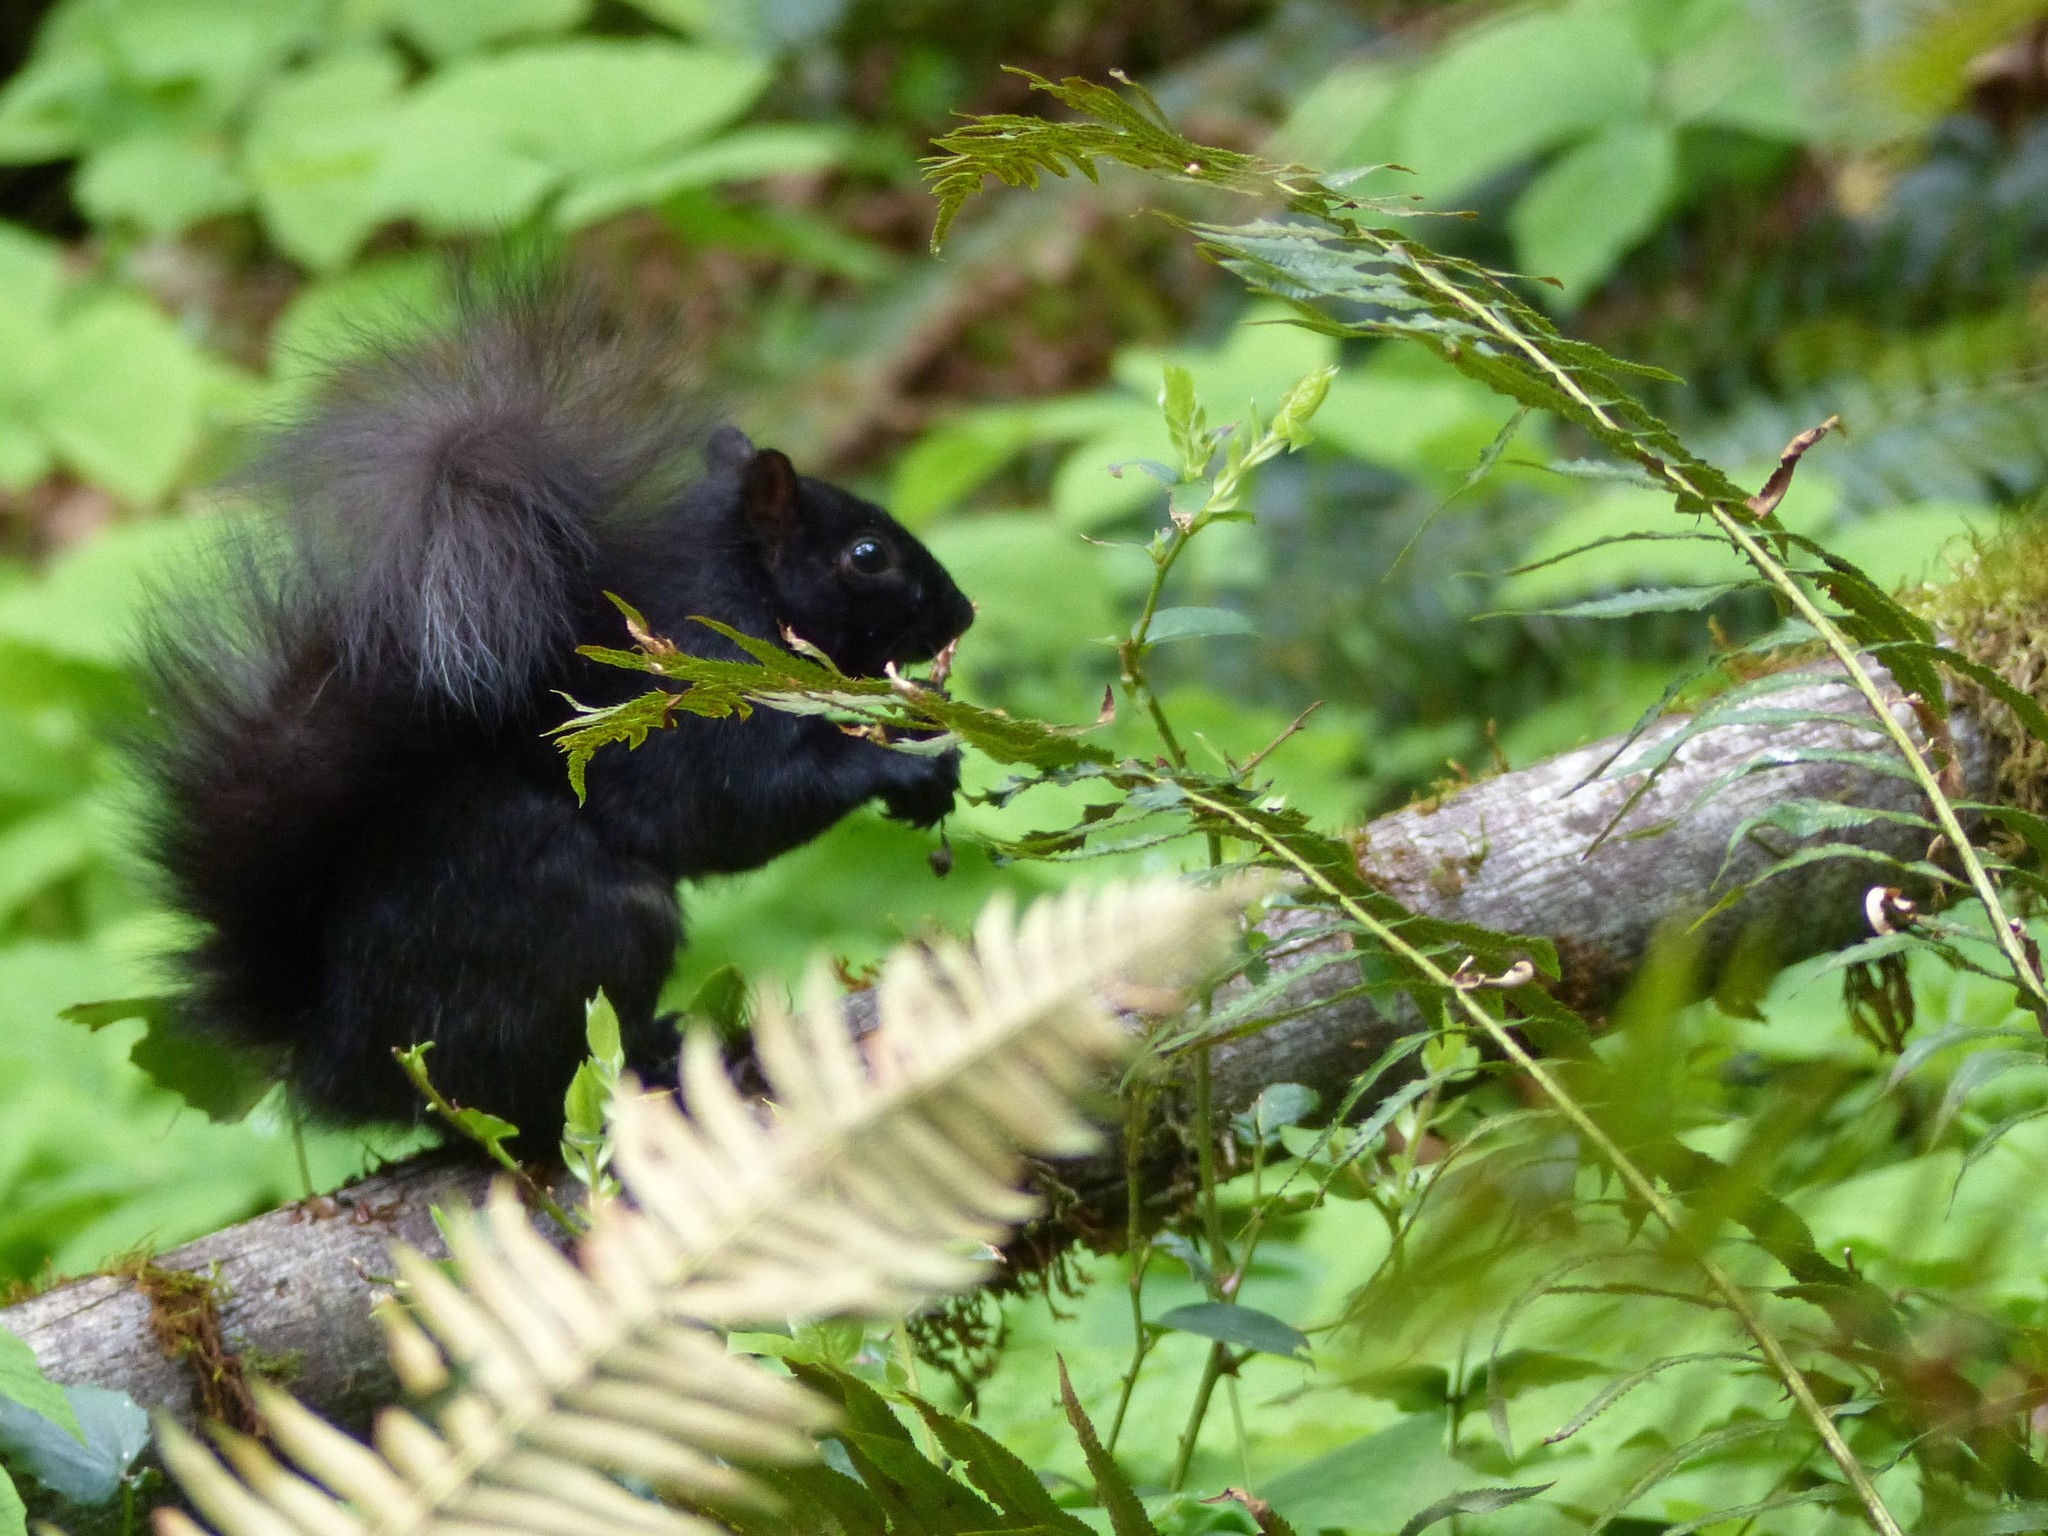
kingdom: Animalia
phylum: Chordata
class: Mammalia
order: Rodentia
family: Sciuridae
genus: Sciurus
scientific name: Sciurus carolinensis
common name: Eastern gray squirrel
